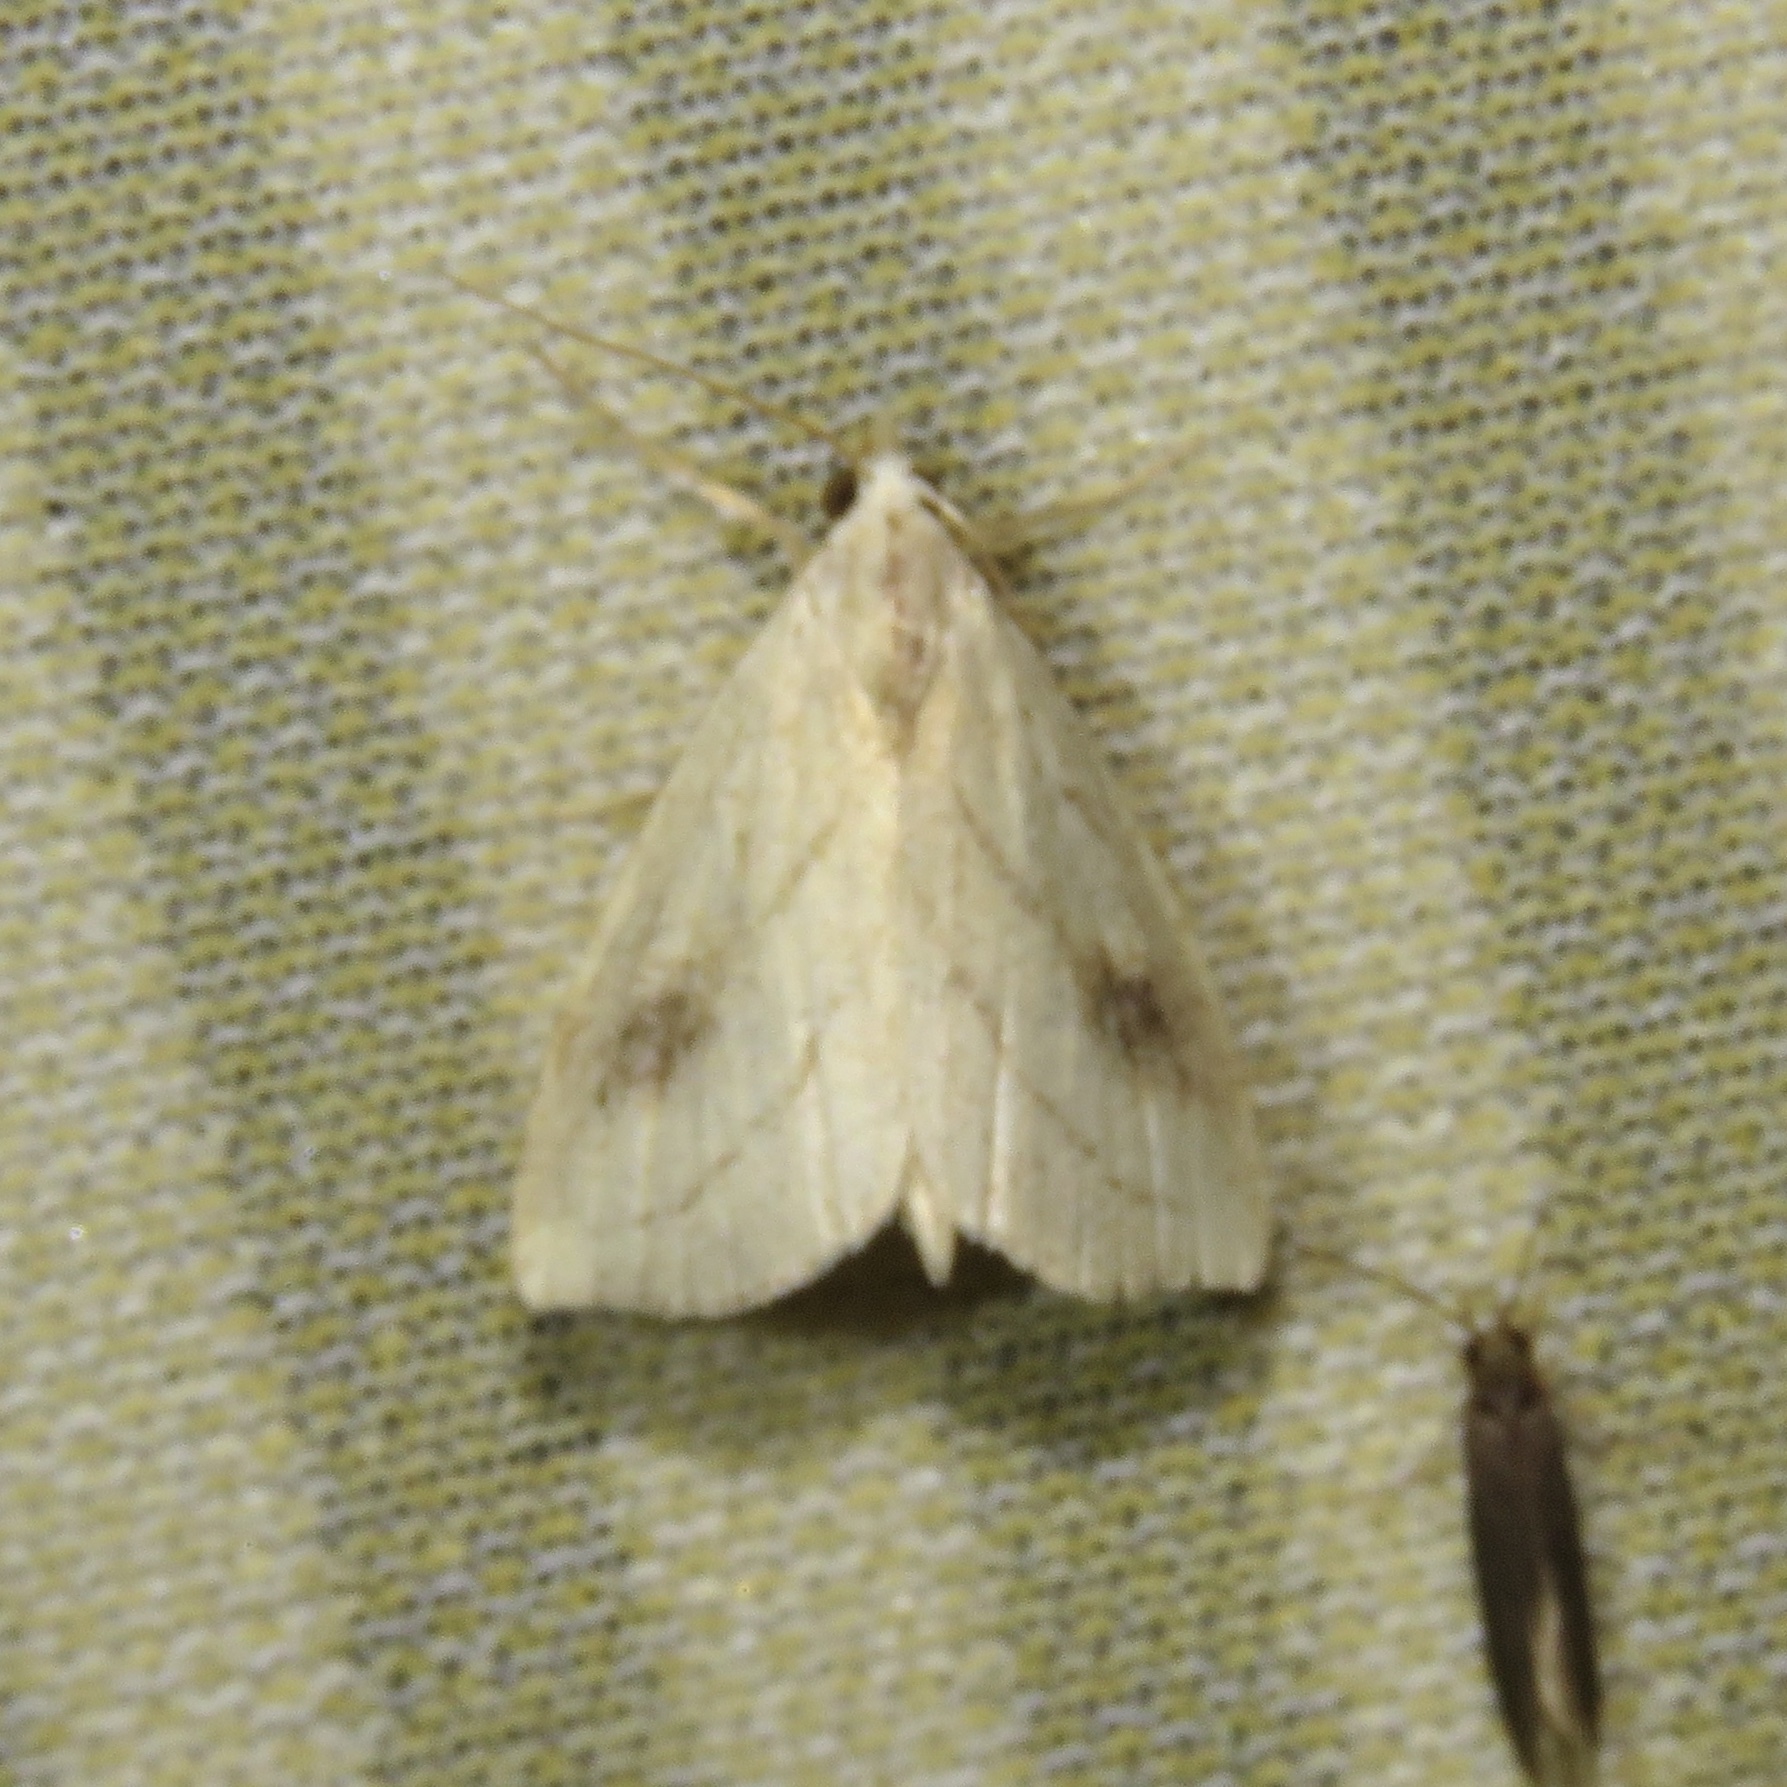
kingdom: Animalia
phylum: Arthropoda
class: Insecta
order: Lepidoptera
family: Erebidae
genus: Rivula
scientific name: Rivula propinqualis
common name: Spotted grass moth
